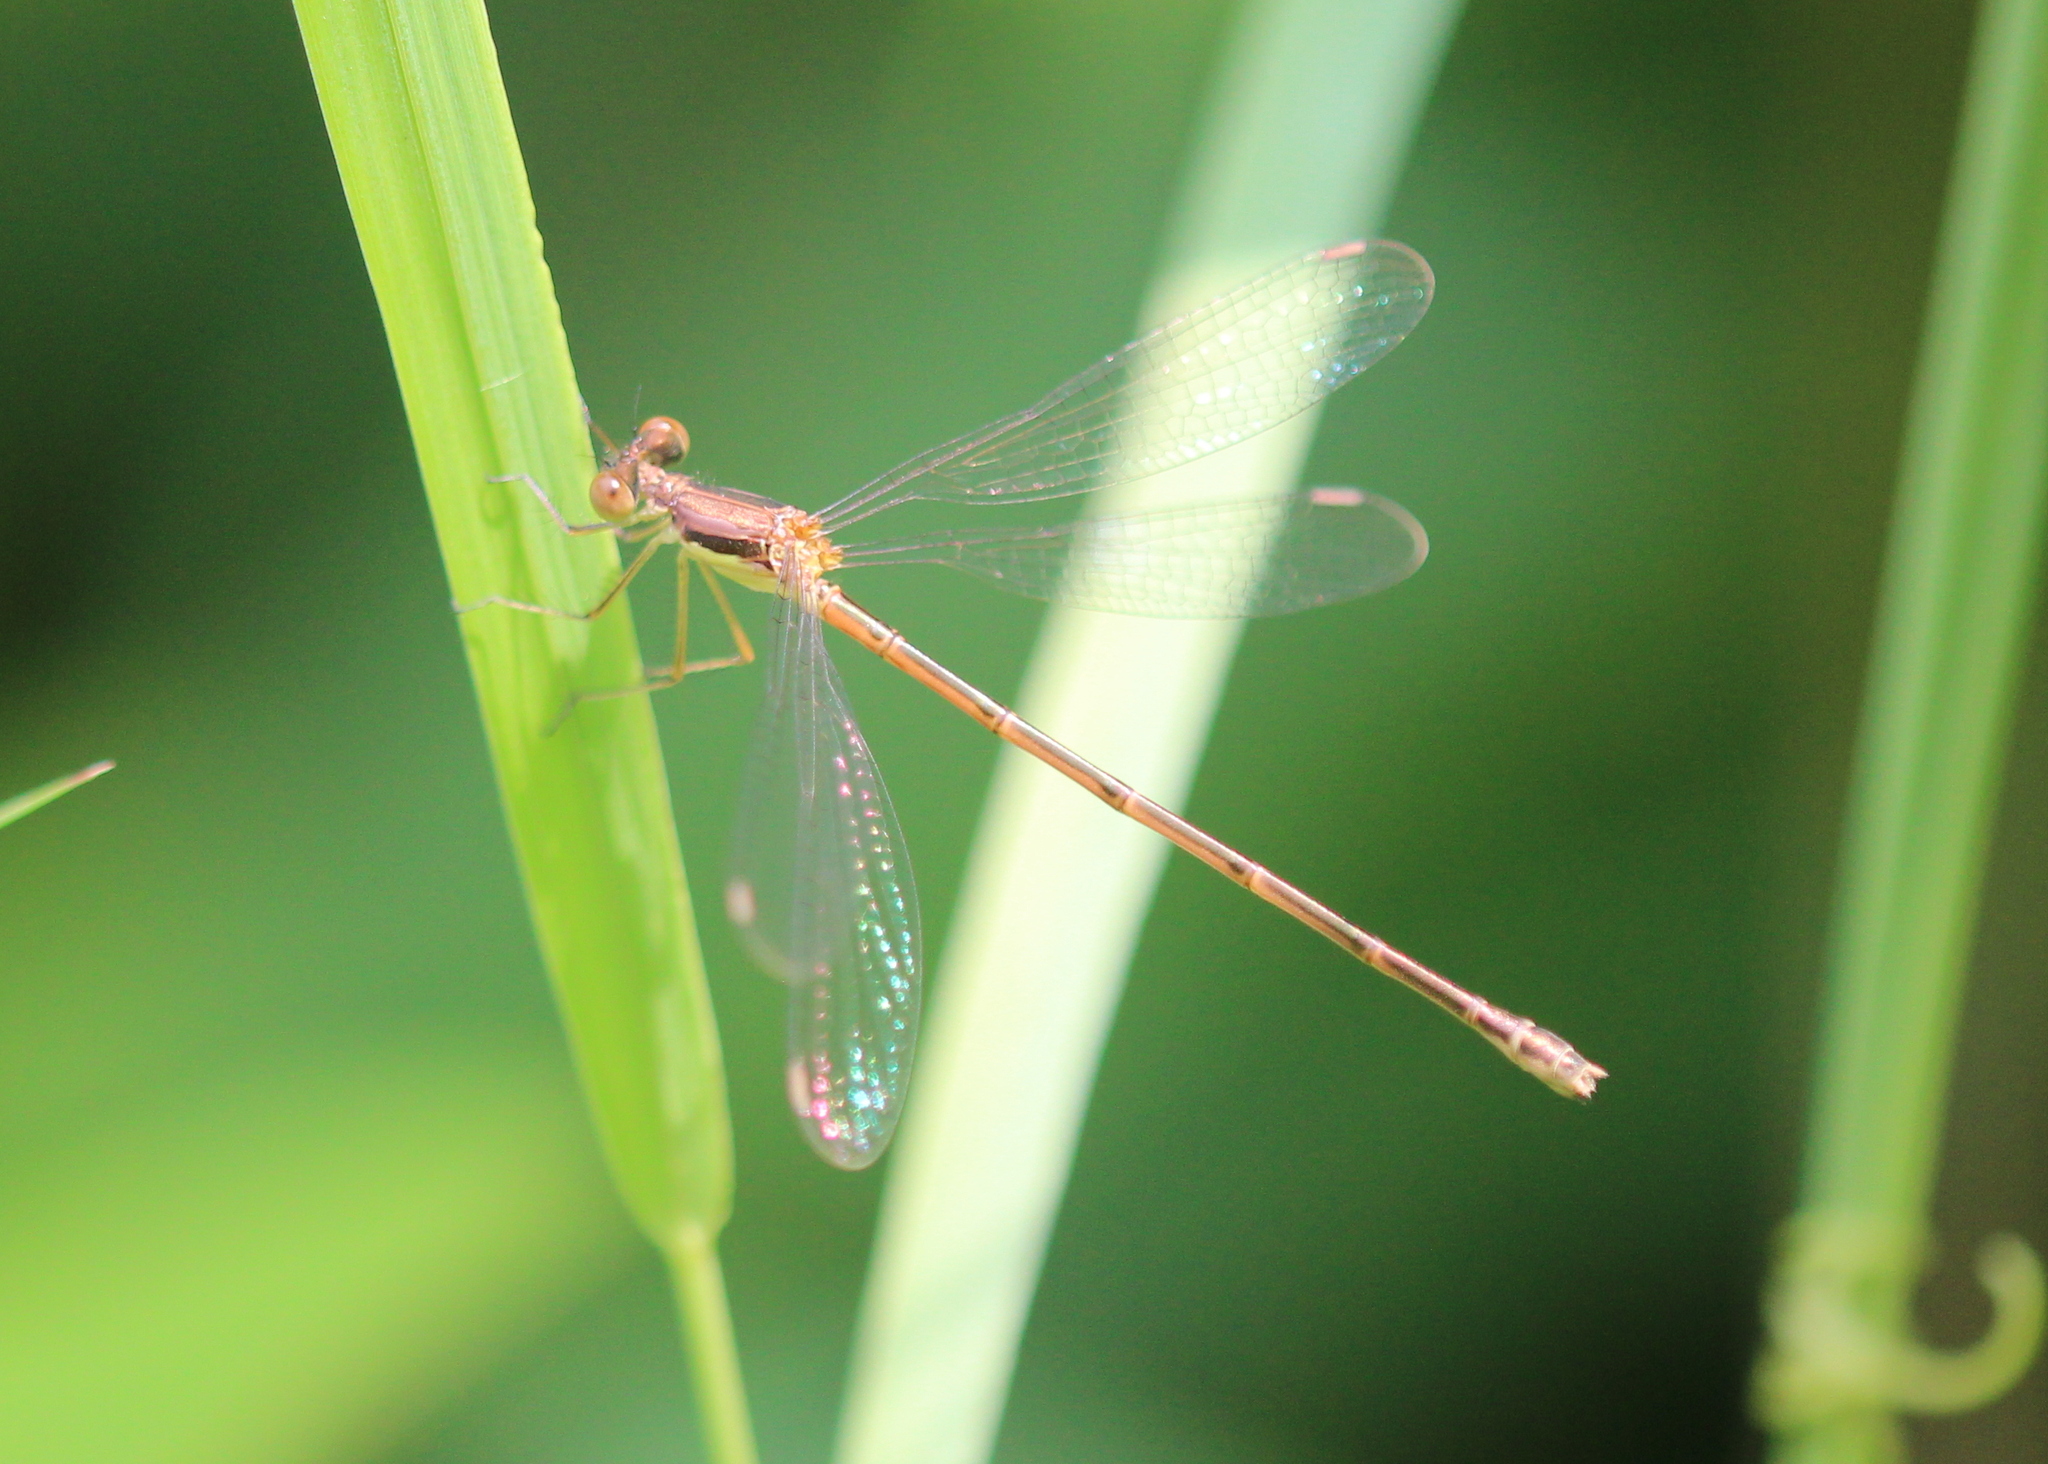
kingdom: Animalia
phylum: Arthropoda
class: Insecta
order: Odonata
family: Lestidae
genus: Lestes
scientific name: Lestes rectangularis
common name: Slender spreadwing
